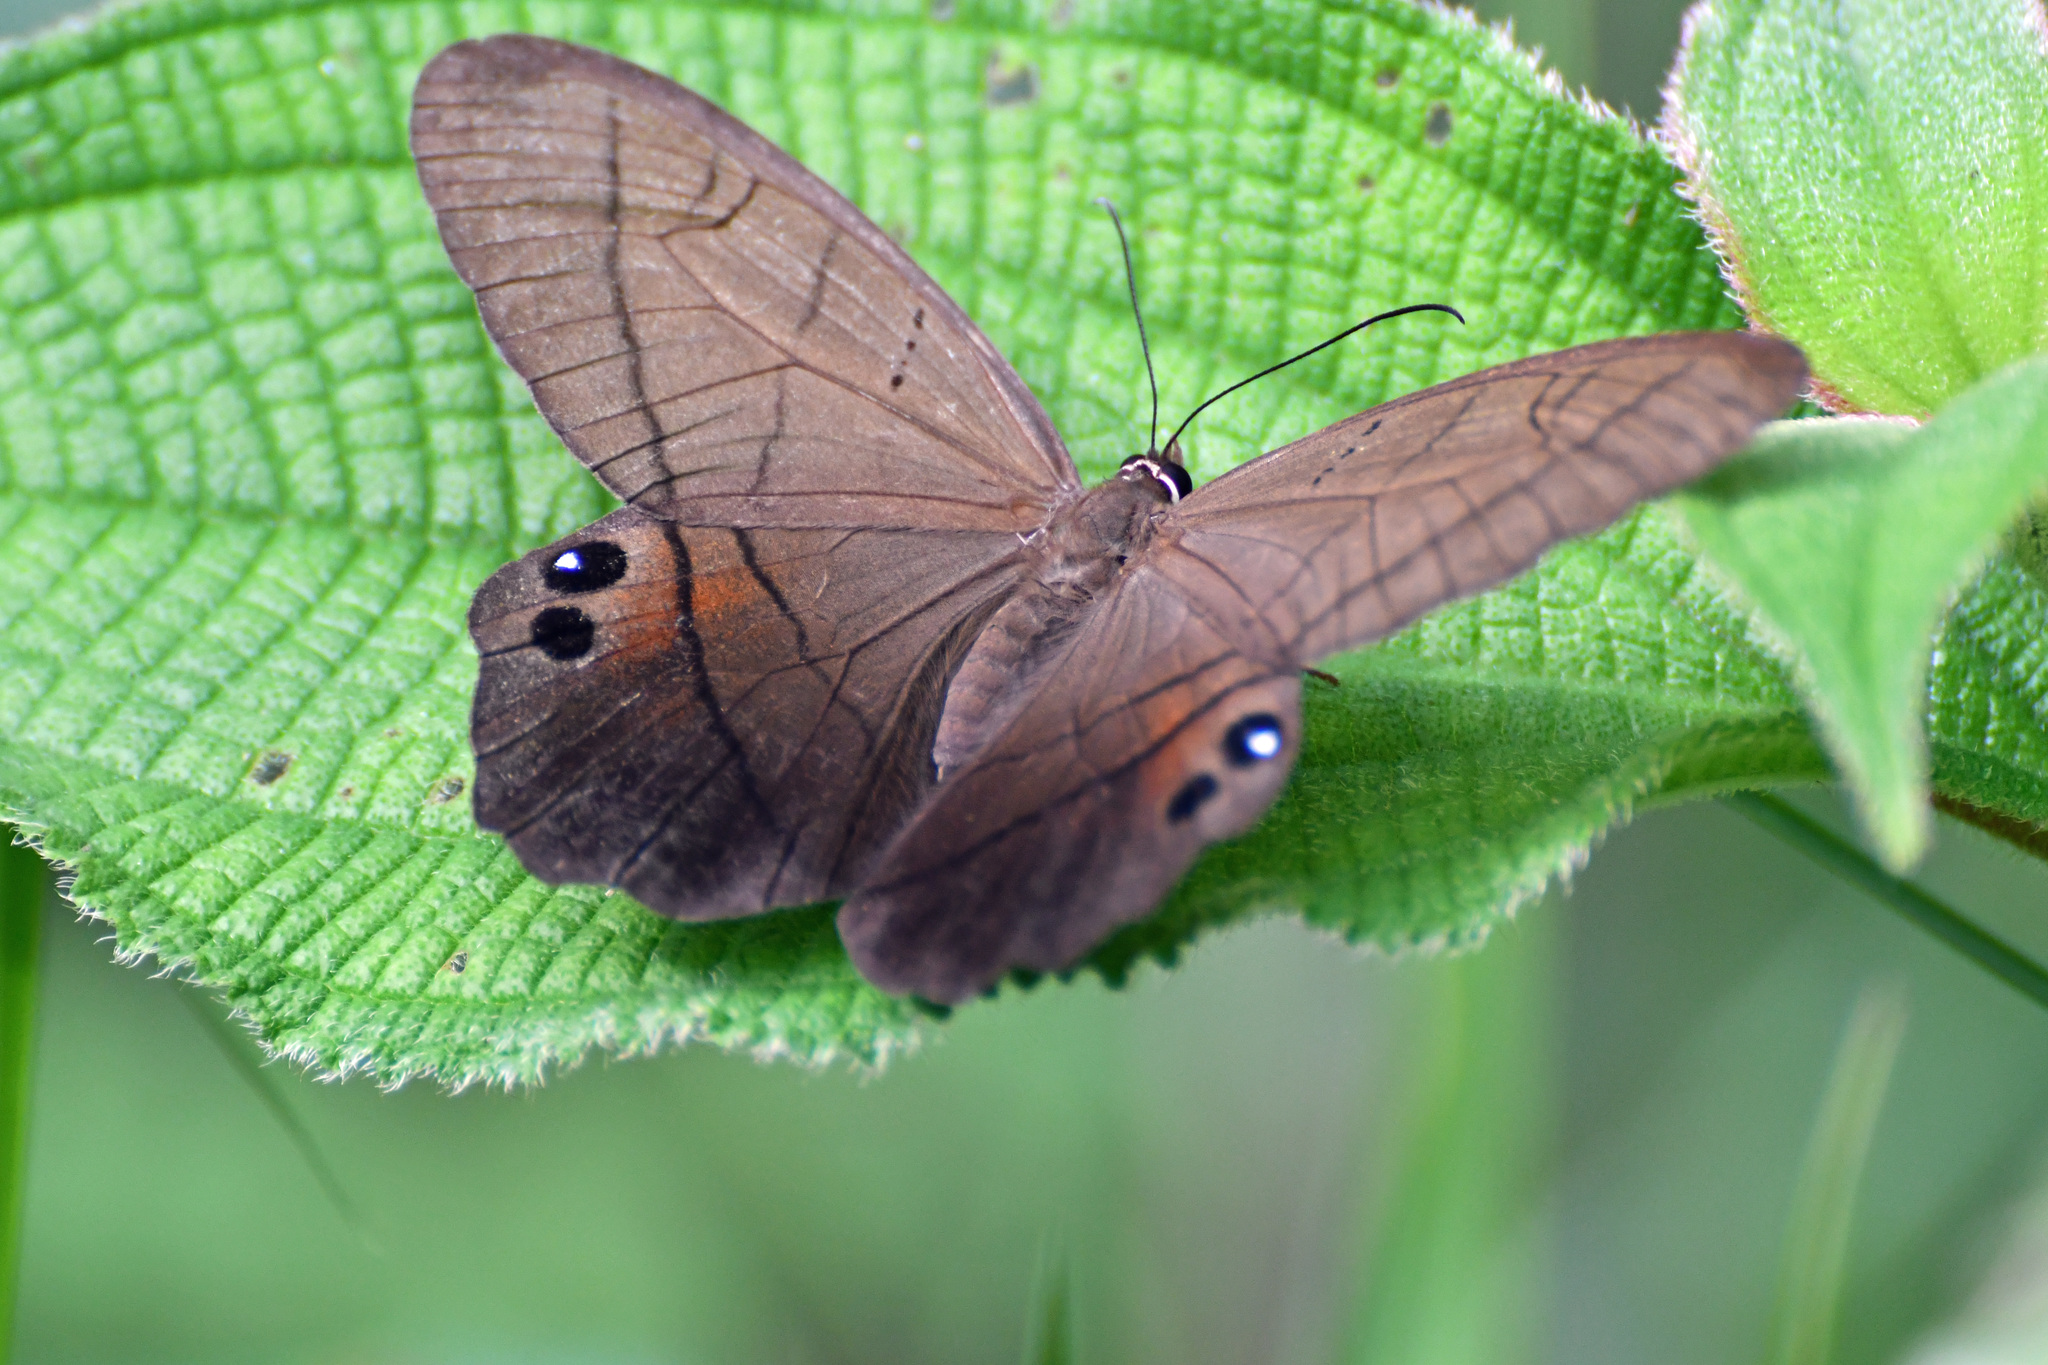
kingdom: Animalia
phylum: Arthropoda
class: Insecta
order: Lepidoptera
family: Nymphalidae
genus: Pierella
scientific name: Pierella lena
